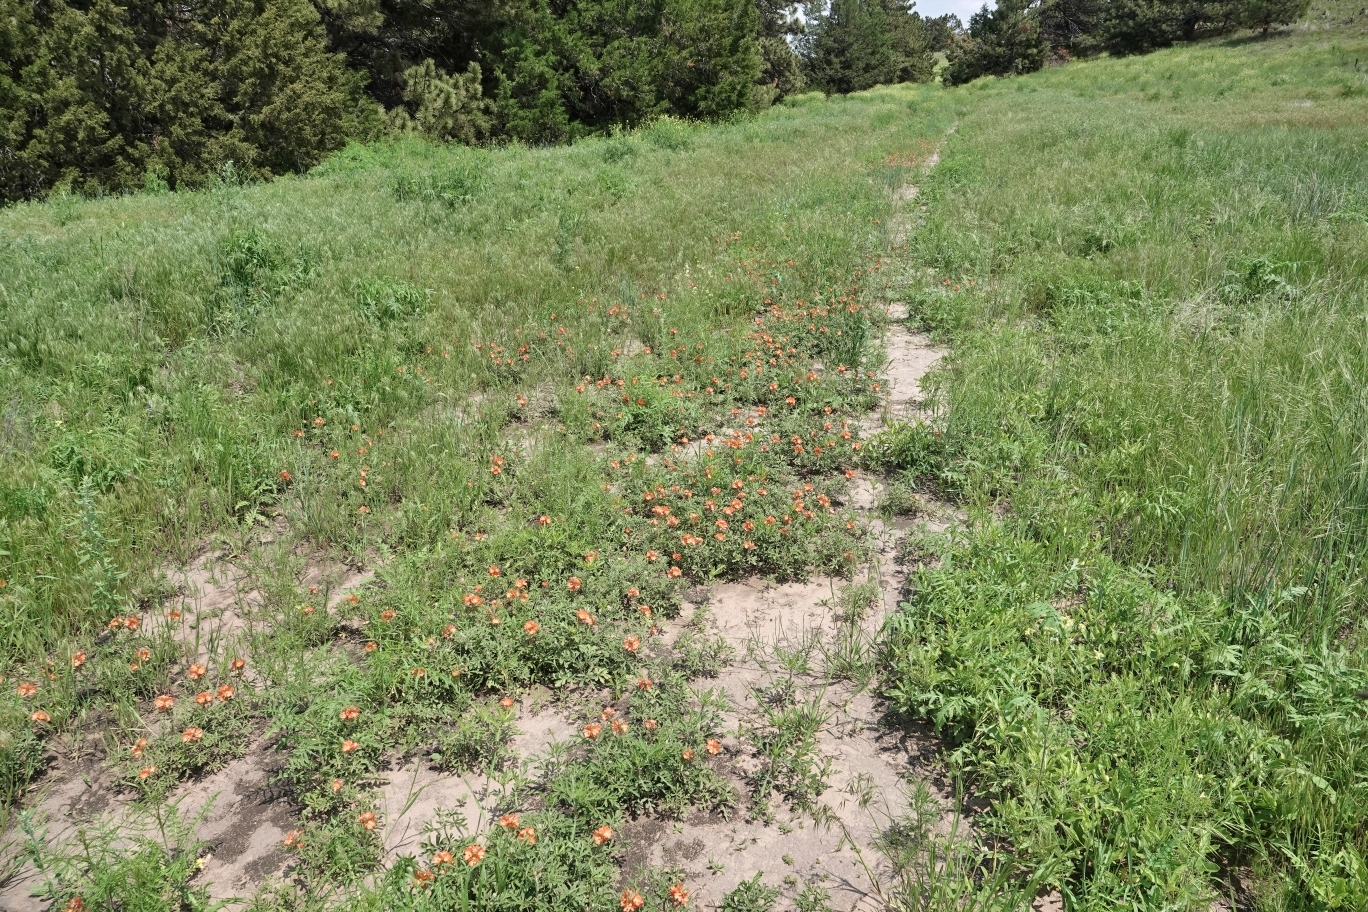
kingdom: Plantae
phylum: Tracheophyta
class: Magnoliopsida
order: Malvales
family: Malvaceae
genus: Sphaeralcea
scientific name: Sphaeralcea coccinea
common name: Moss-rose
